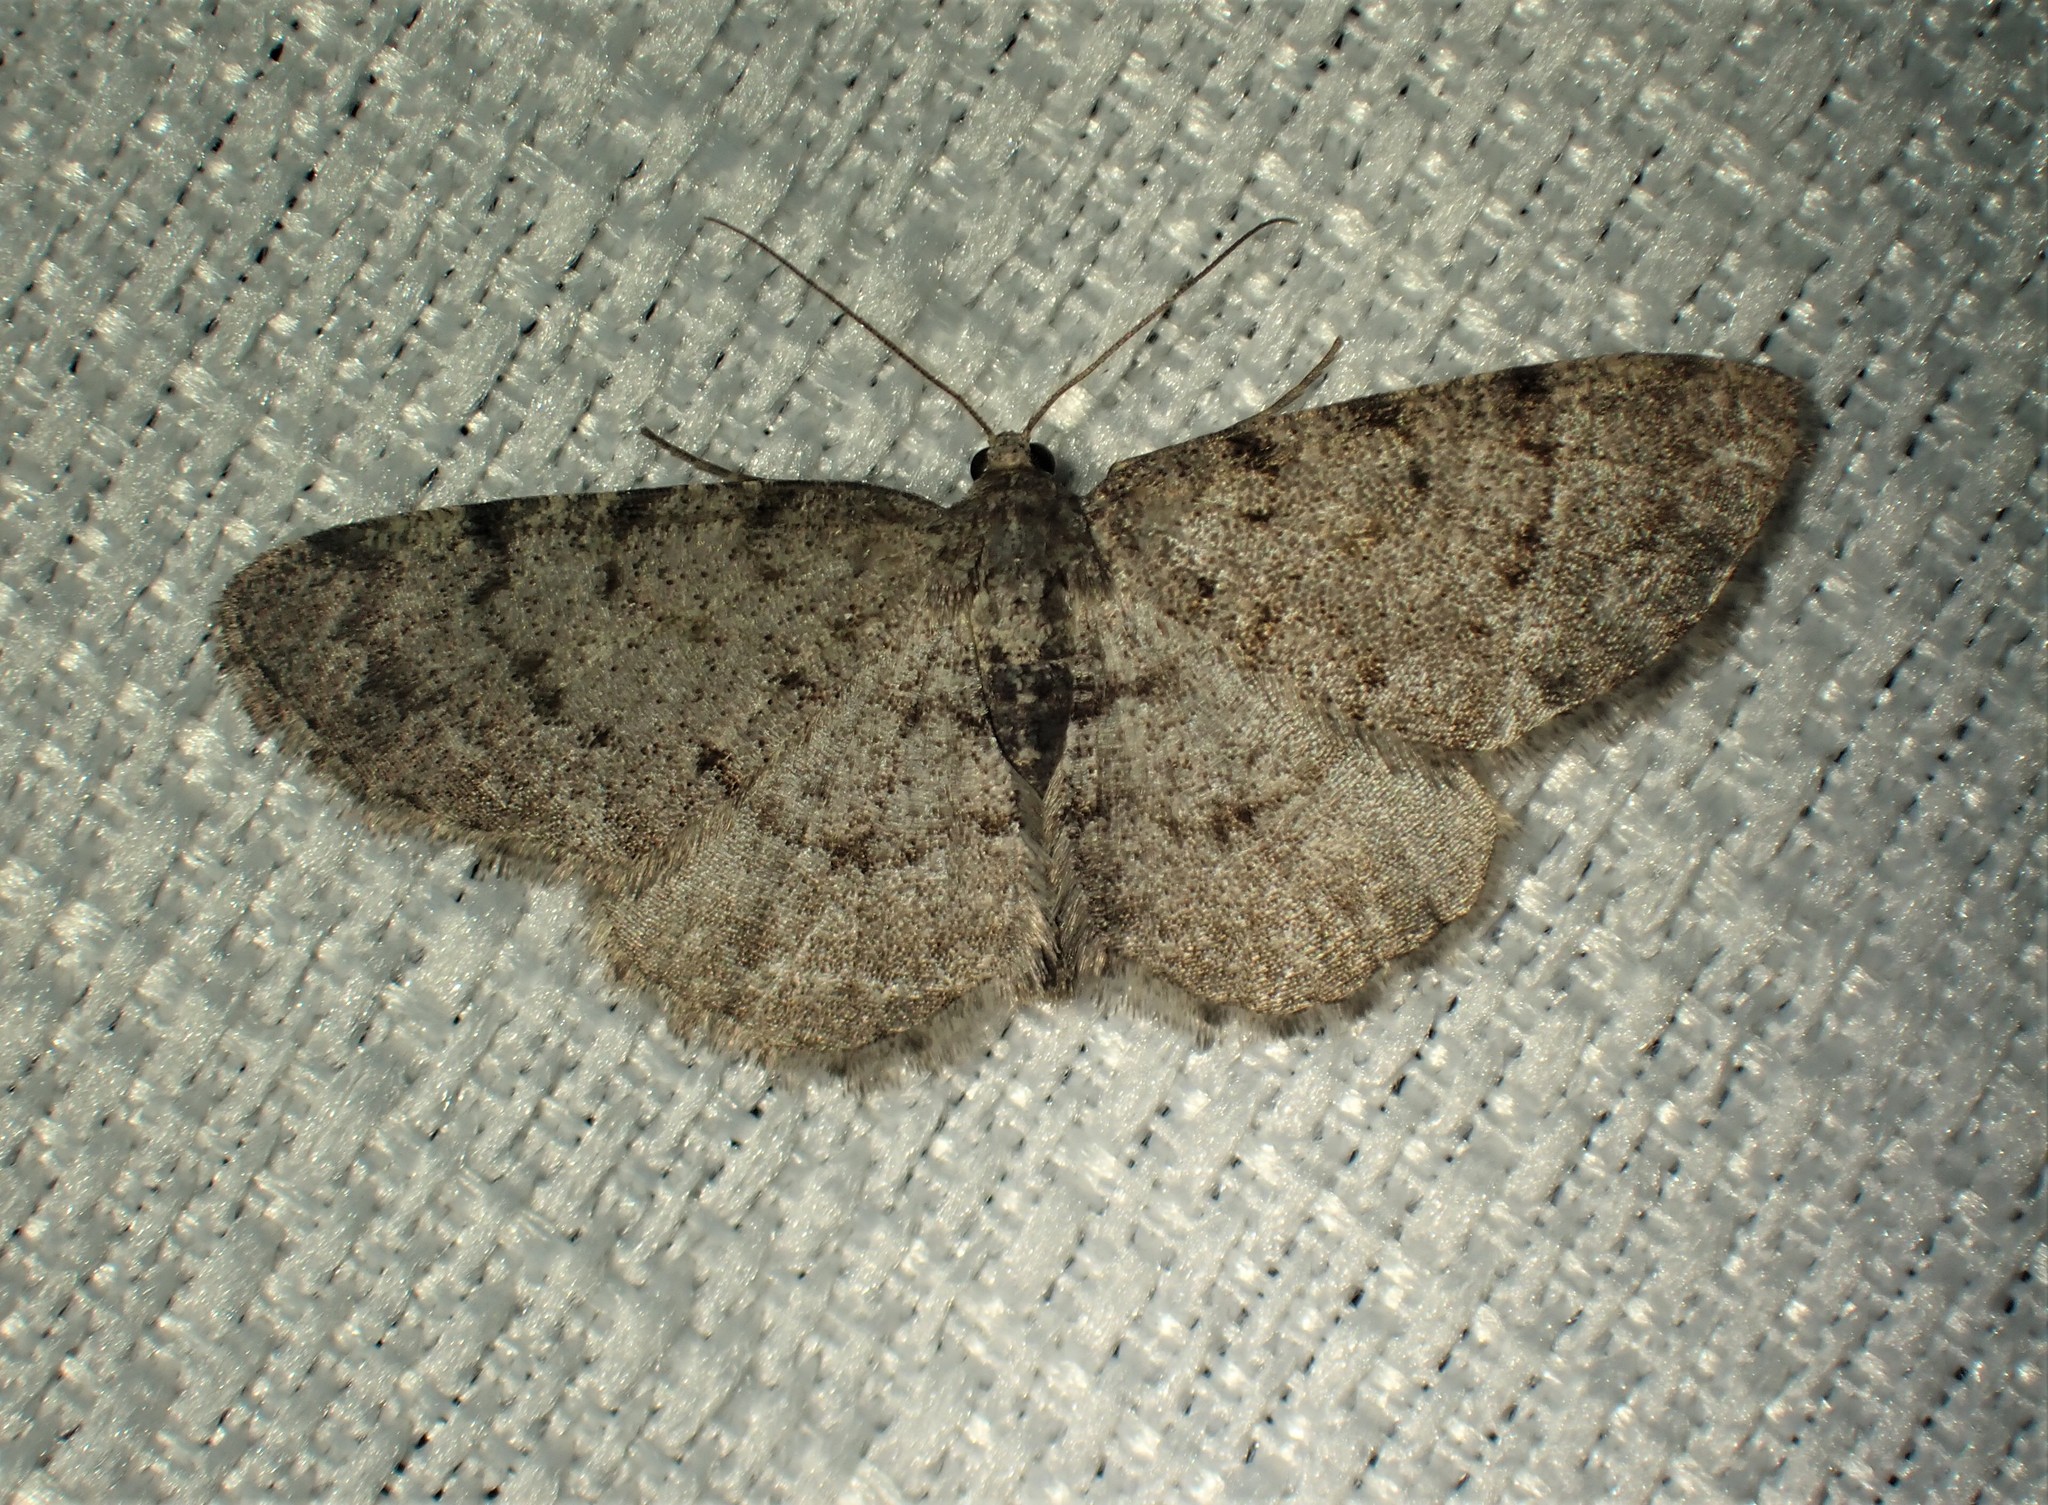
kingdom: Animalia
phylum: Arthropoda
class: Insecta
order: Lepidoptera
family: Geometridae
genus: Aethalura
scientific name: Aethalura intertexta
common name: Four-barred gray
